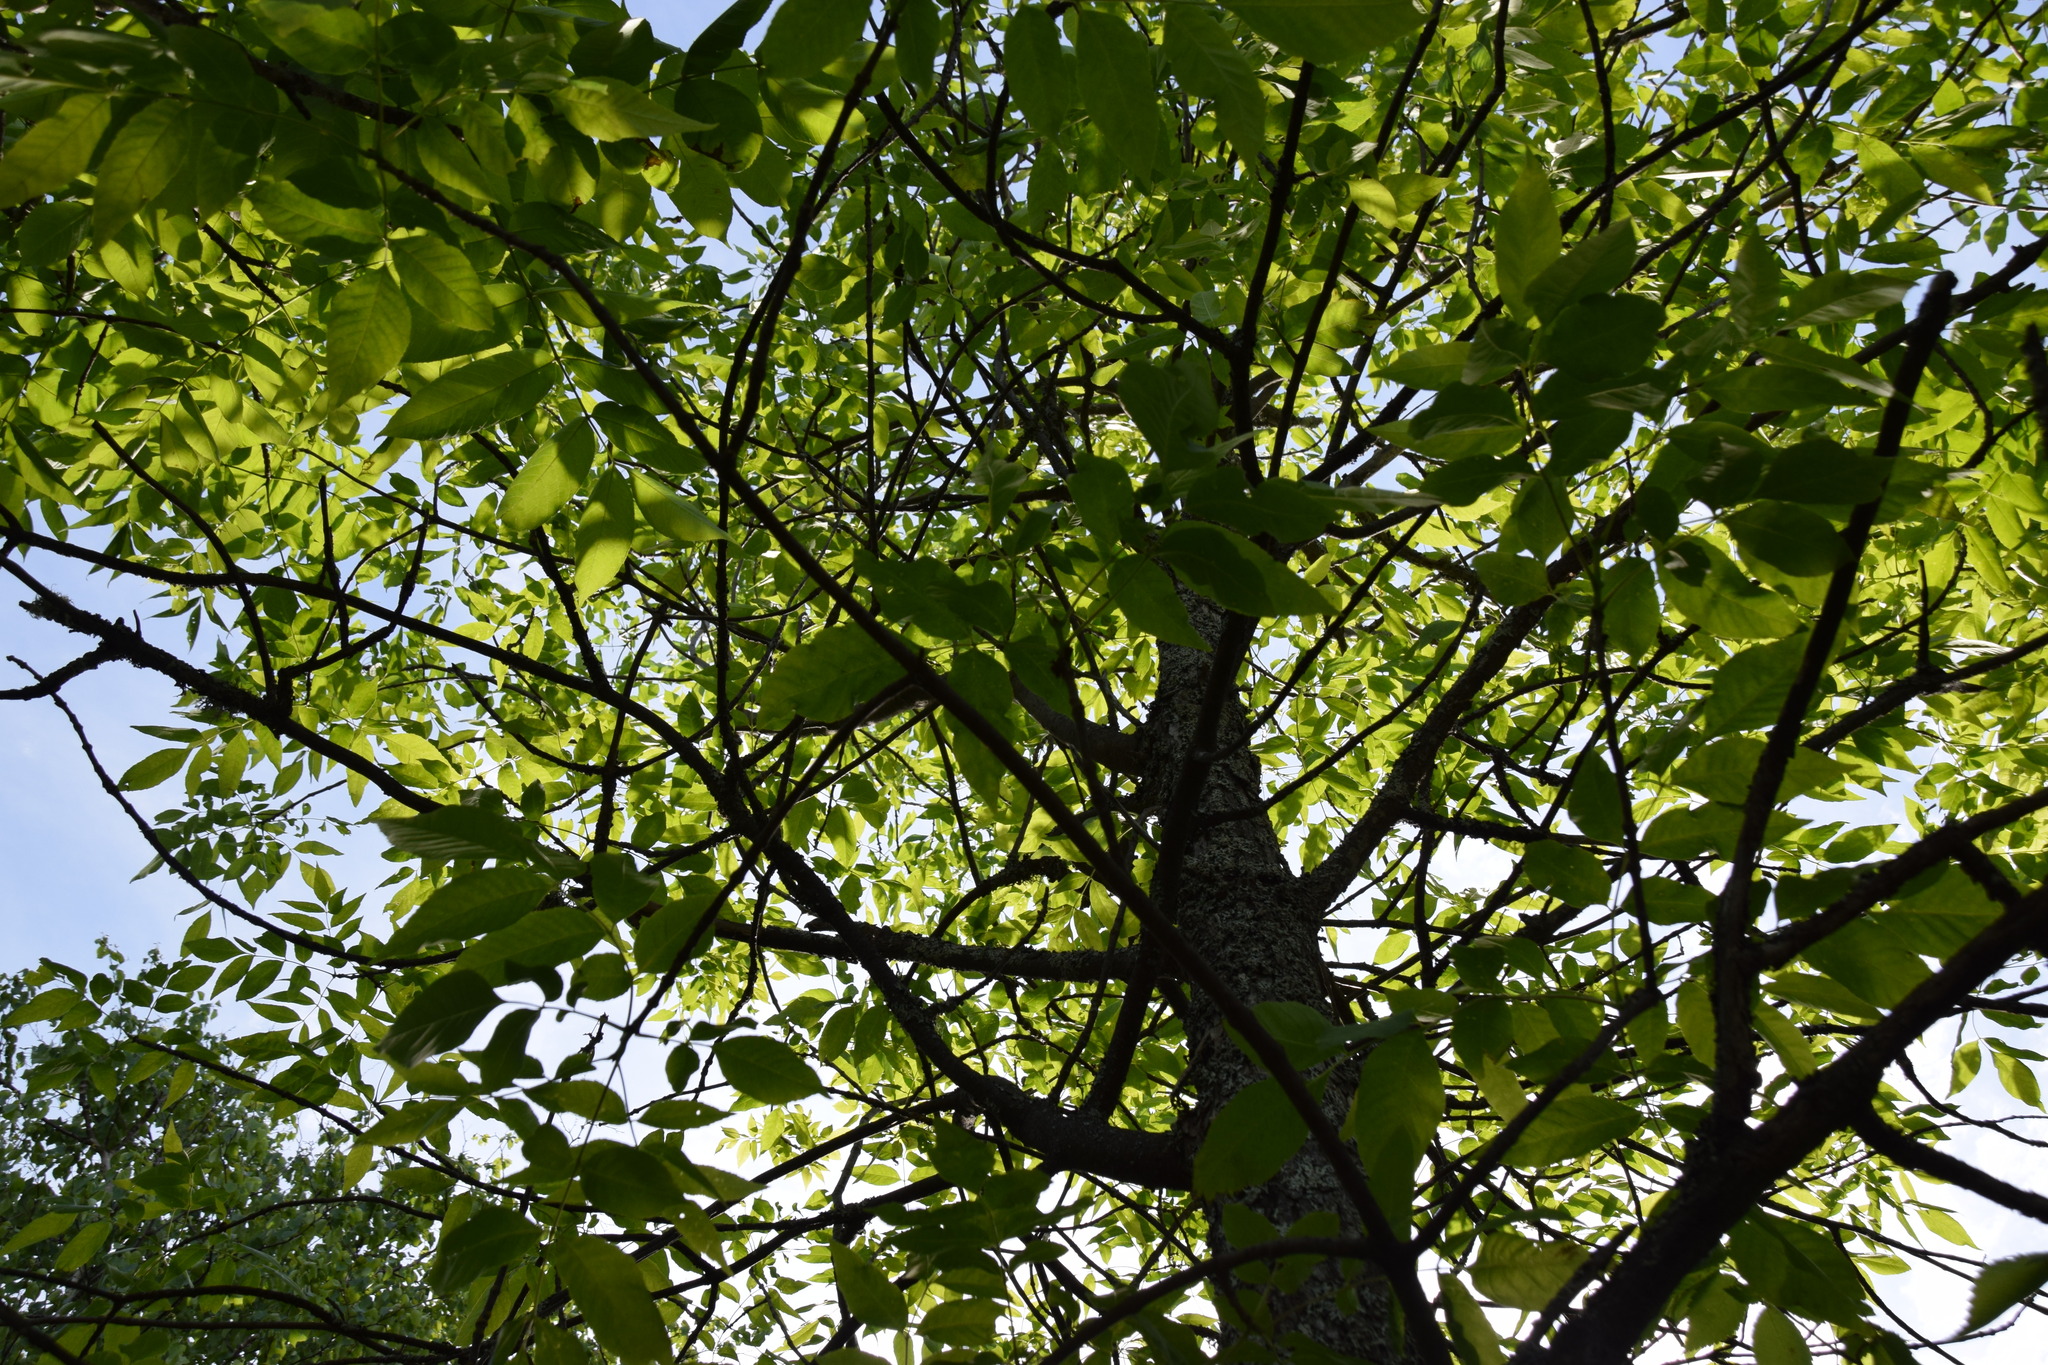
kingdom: Plantae
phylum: Tracheophyta
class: Magnoliopsida
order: Lamiales
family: Oleaceae
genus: Fraxinus
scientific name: Fraxinus pennsylvanica
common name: Green ash
